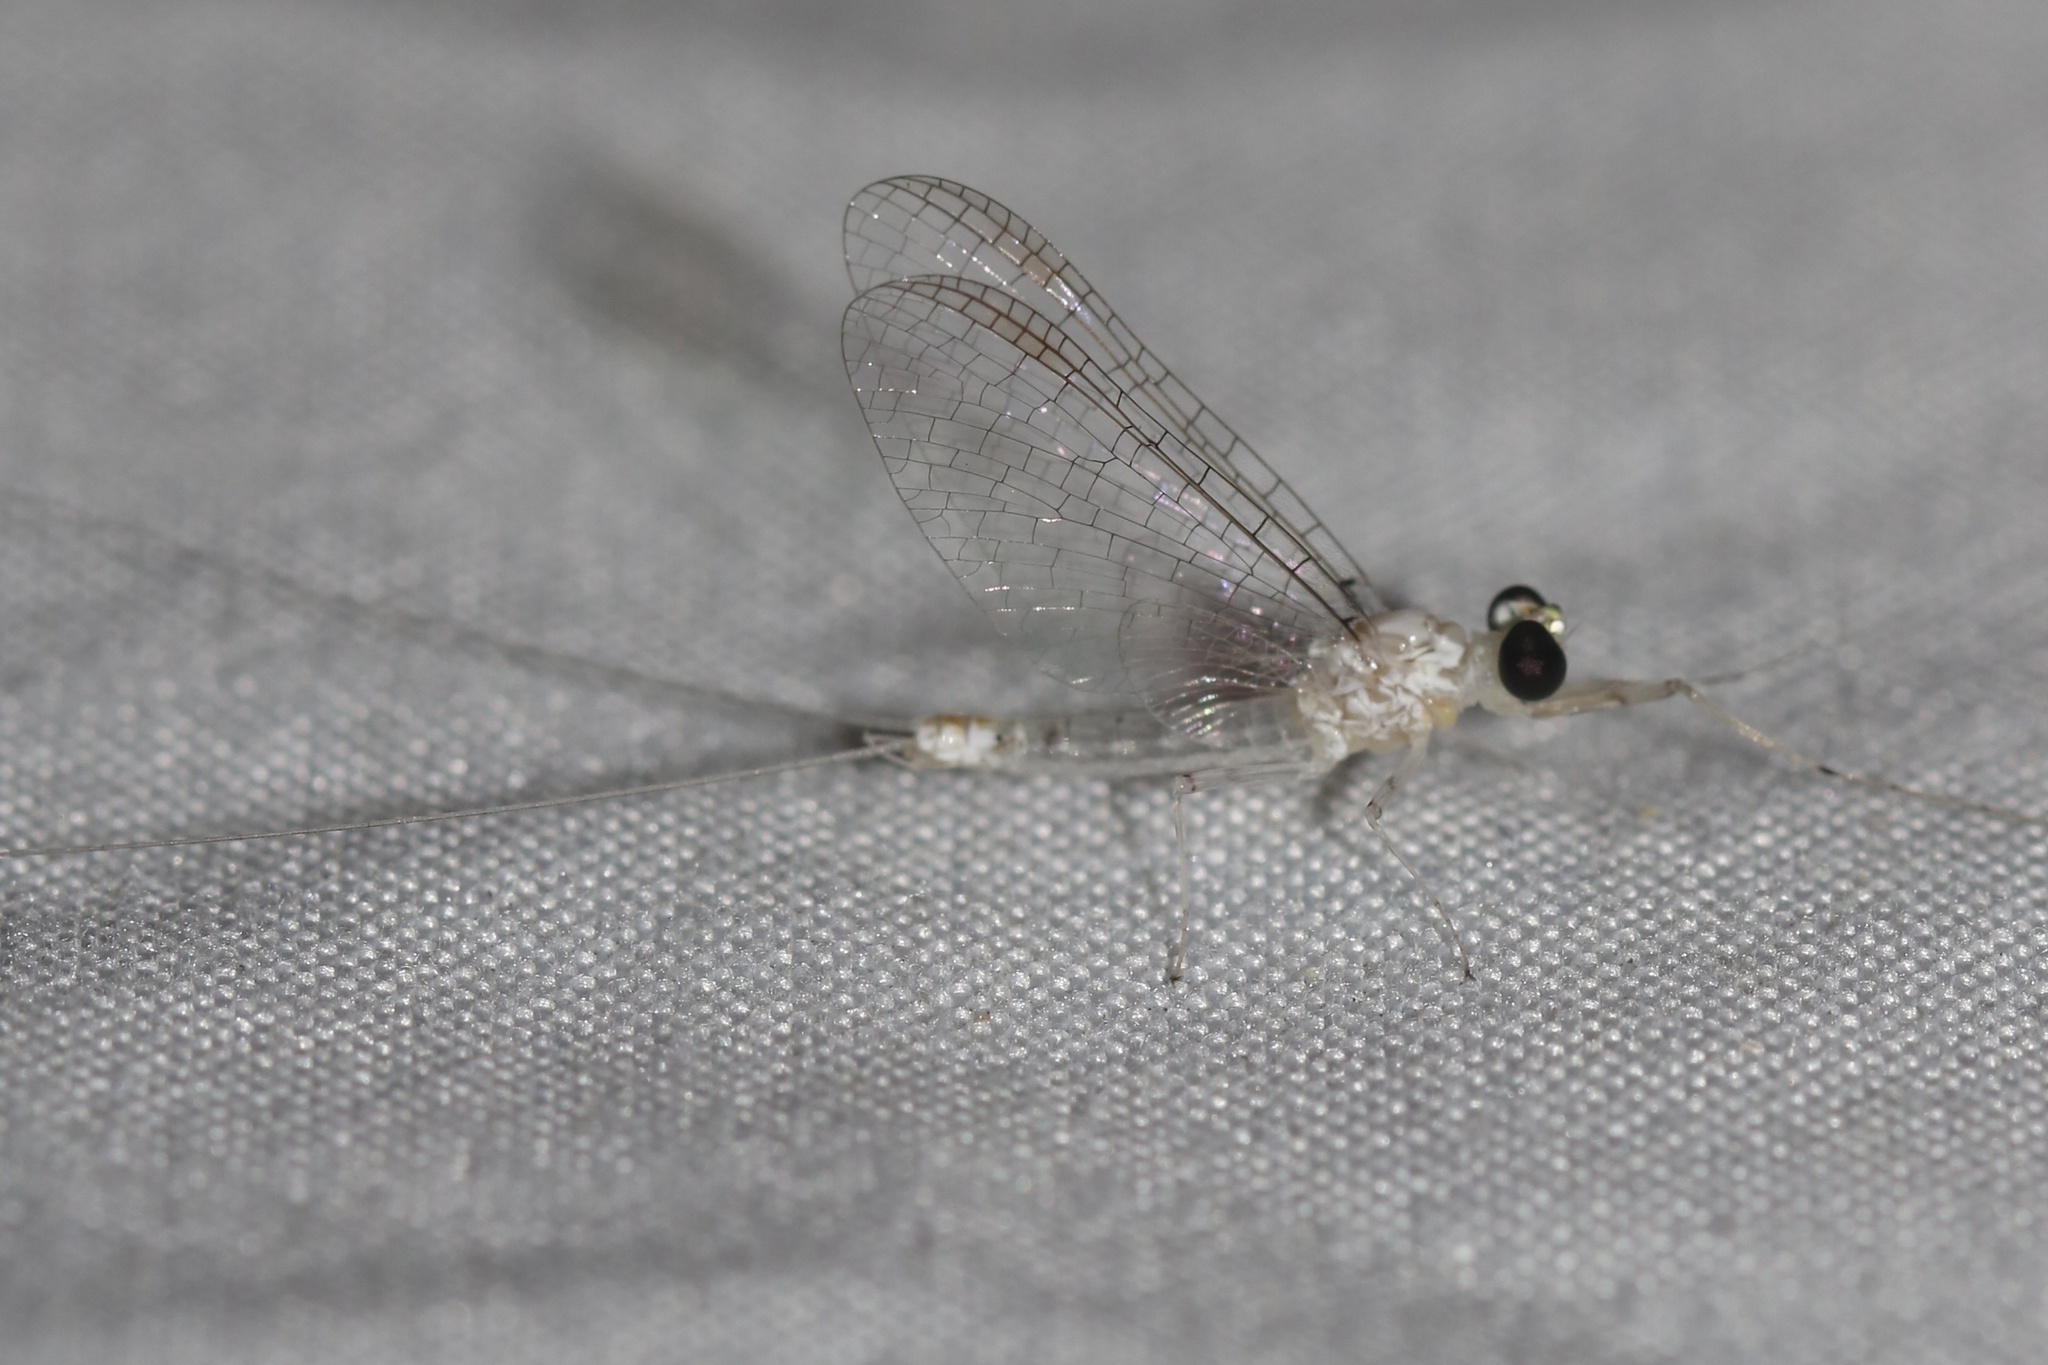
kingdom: Animalia
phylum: Arthropoda
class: Insecta
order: Ephemeroptera
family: Heptageniidae
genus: Maccaffertium
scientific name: Maccaffertium mexicanum
